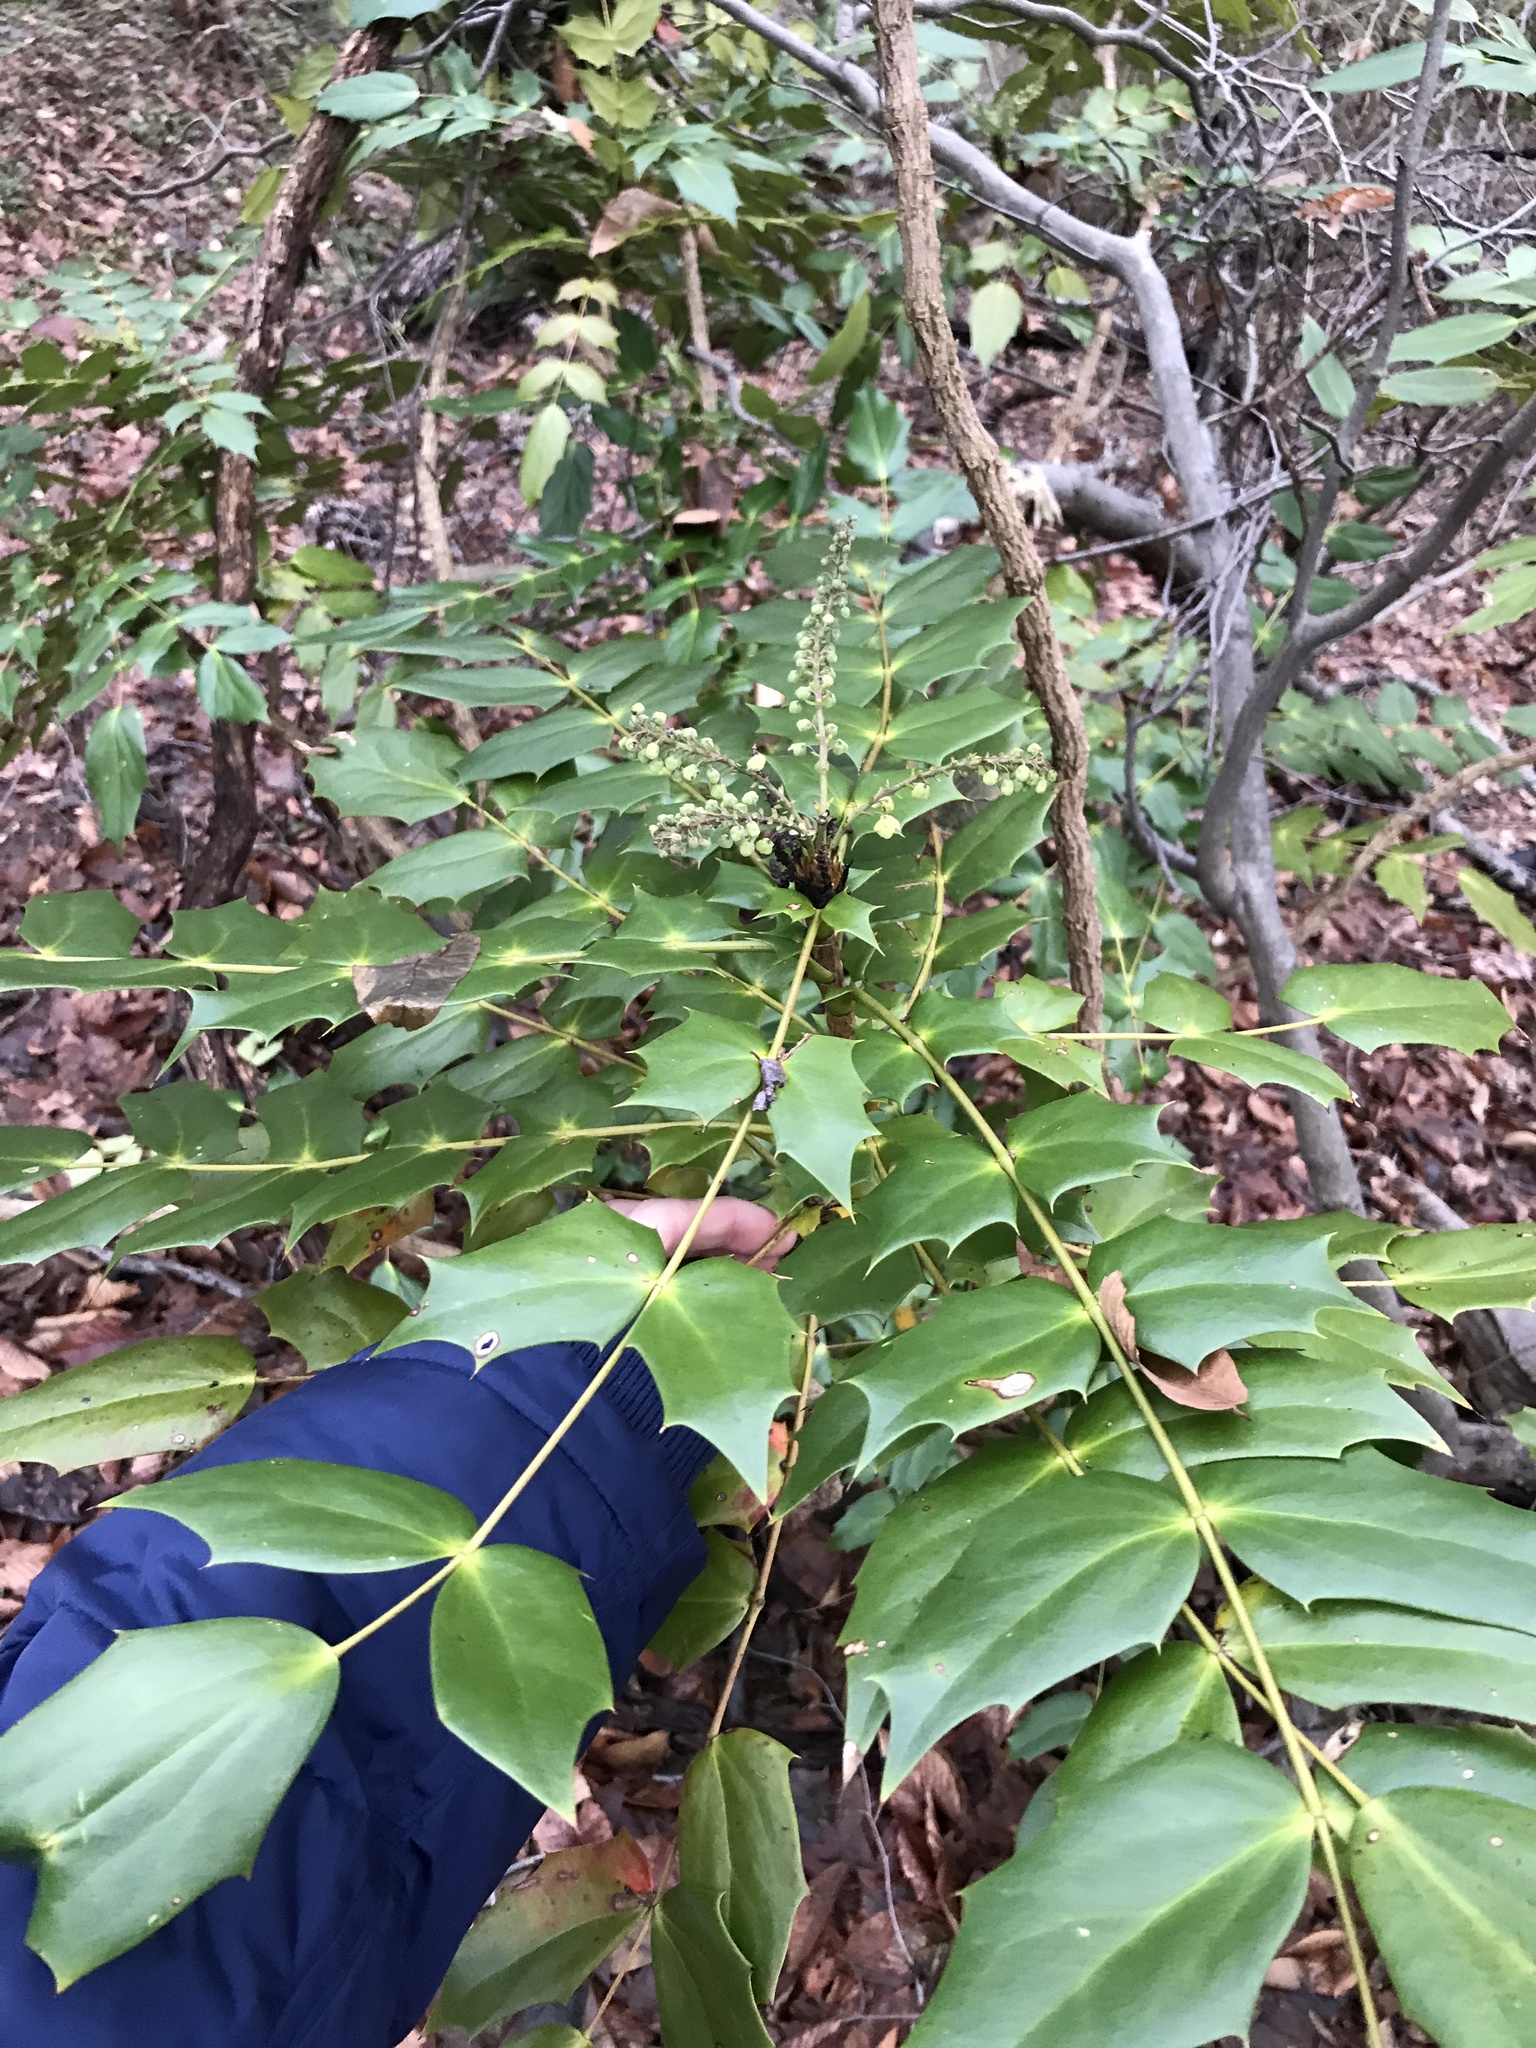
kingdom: Plantae
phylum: Tracheophyta
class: Magnoliopsida
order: Ranunculales
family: Berberidaceae
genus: Mahonia
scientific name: Mahonia bealei
